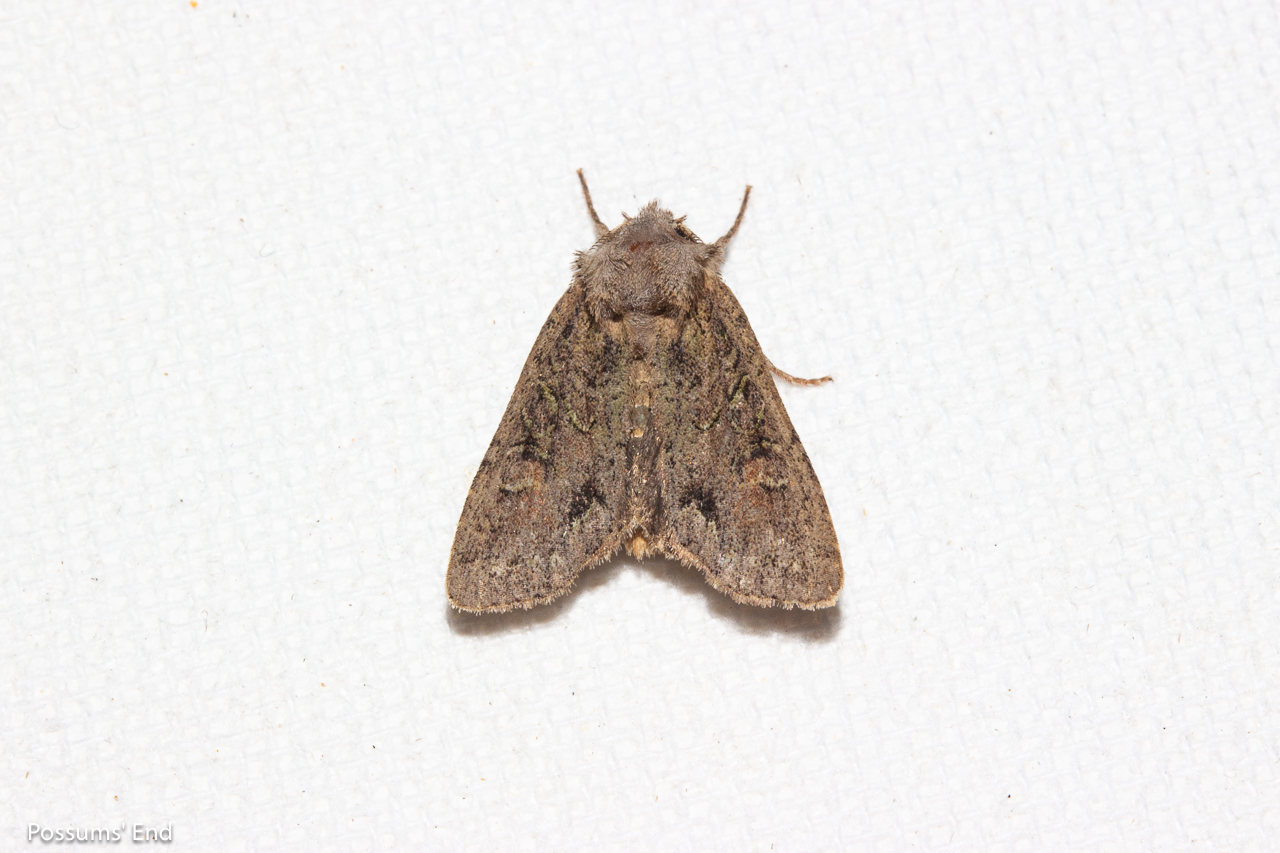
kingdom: Animalia
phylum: Arthropoda
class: Insecta
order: Lepidoptera
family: Noctuidae
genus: Ichneutica
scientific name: Ichneutica skelloni
